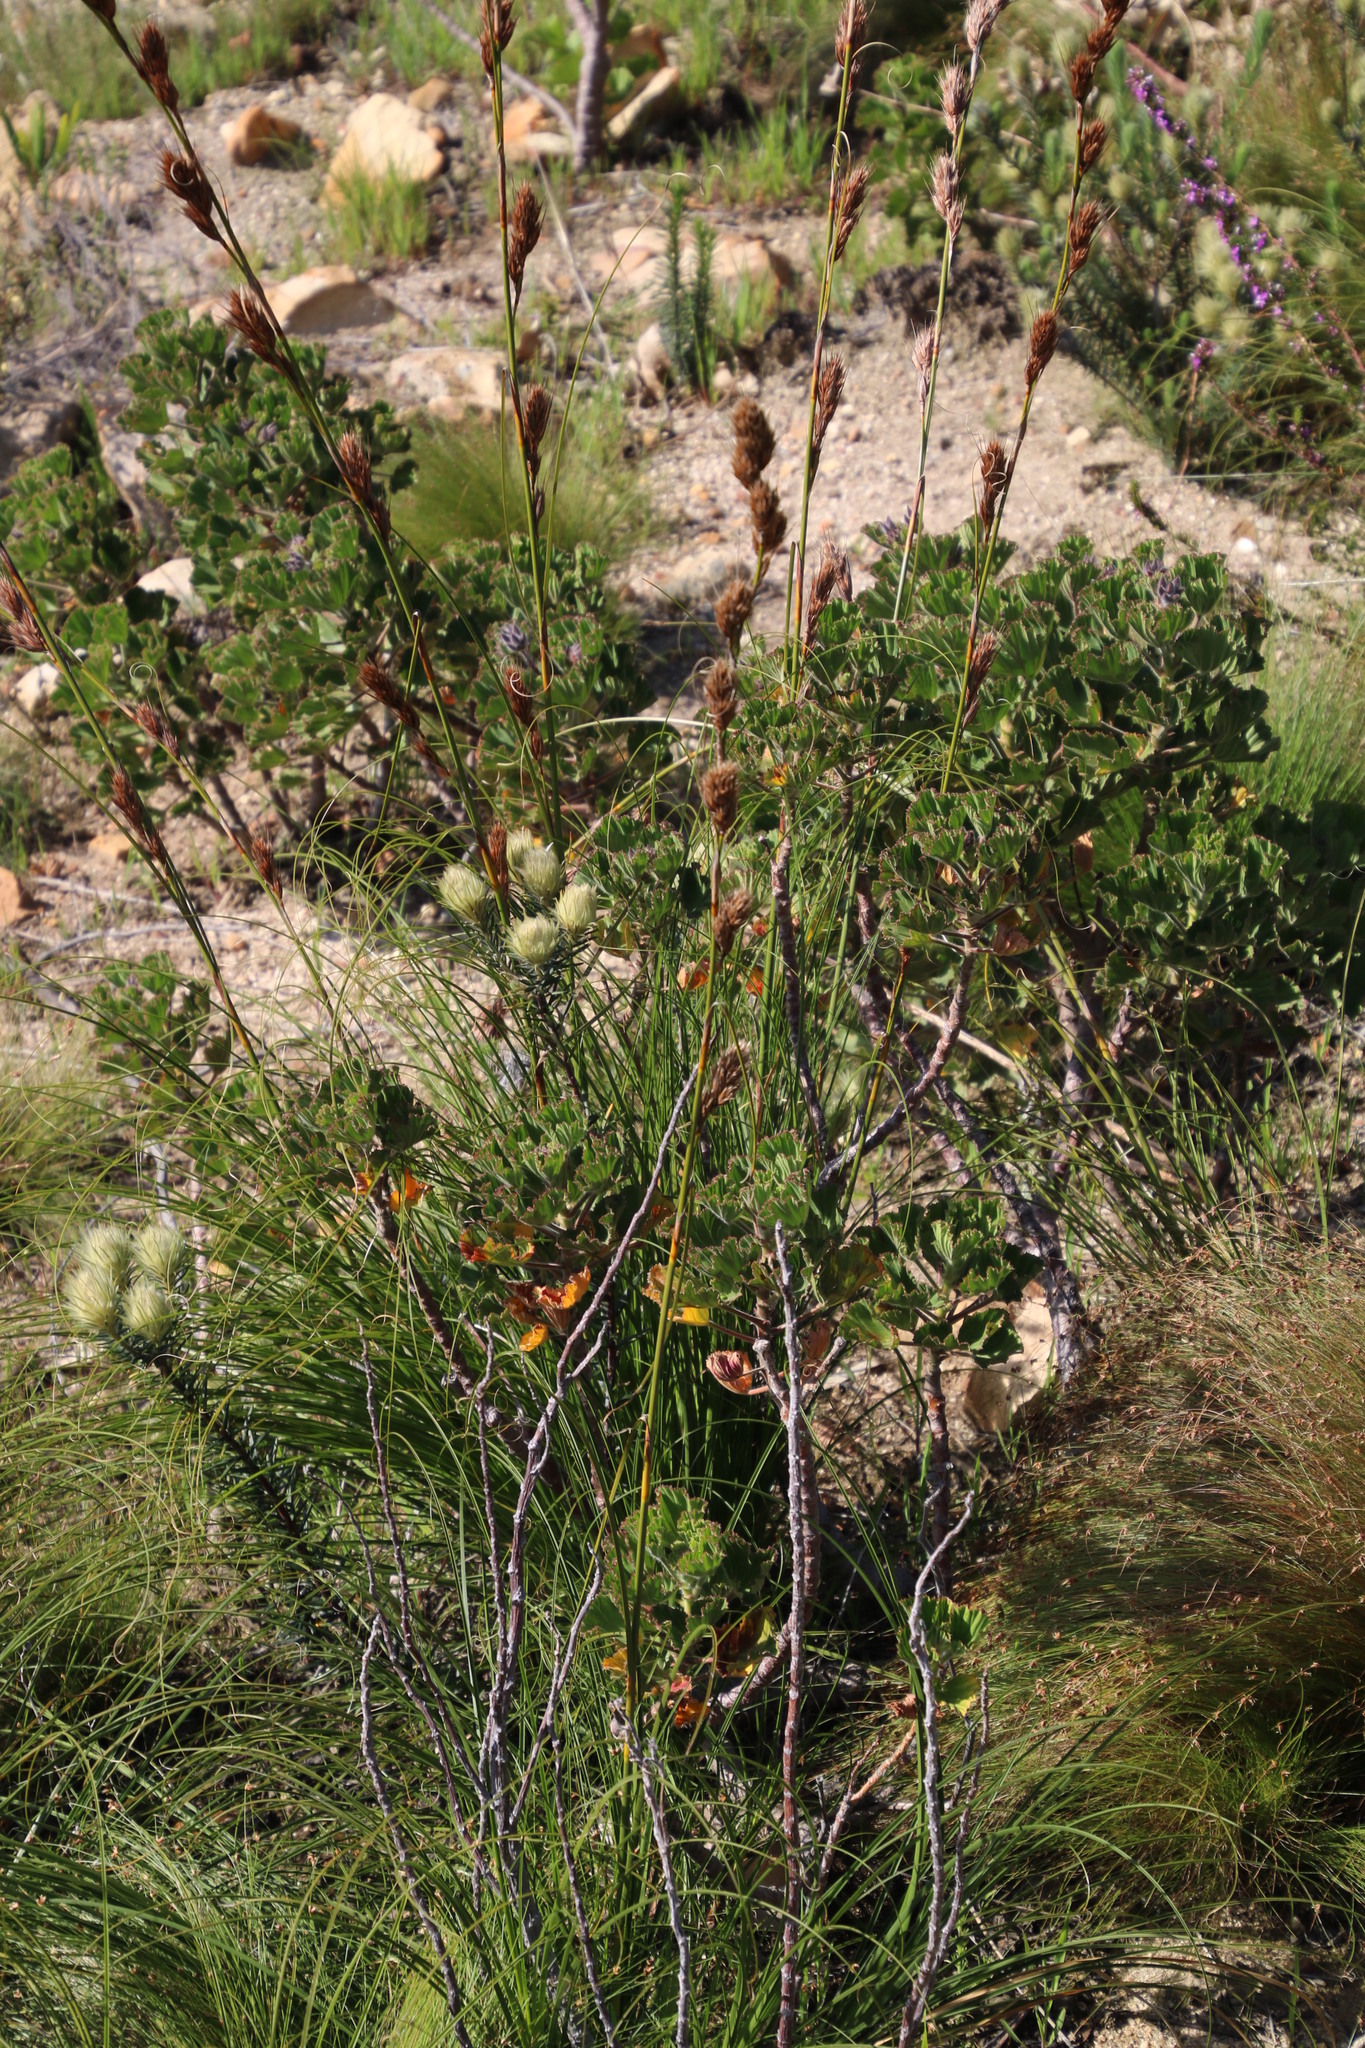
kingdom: Plantae
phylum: Tracheophyta
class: Liliopsida
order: Poales
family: Cyperaceae
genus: Tetraria
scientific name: Tetraria bromoides
